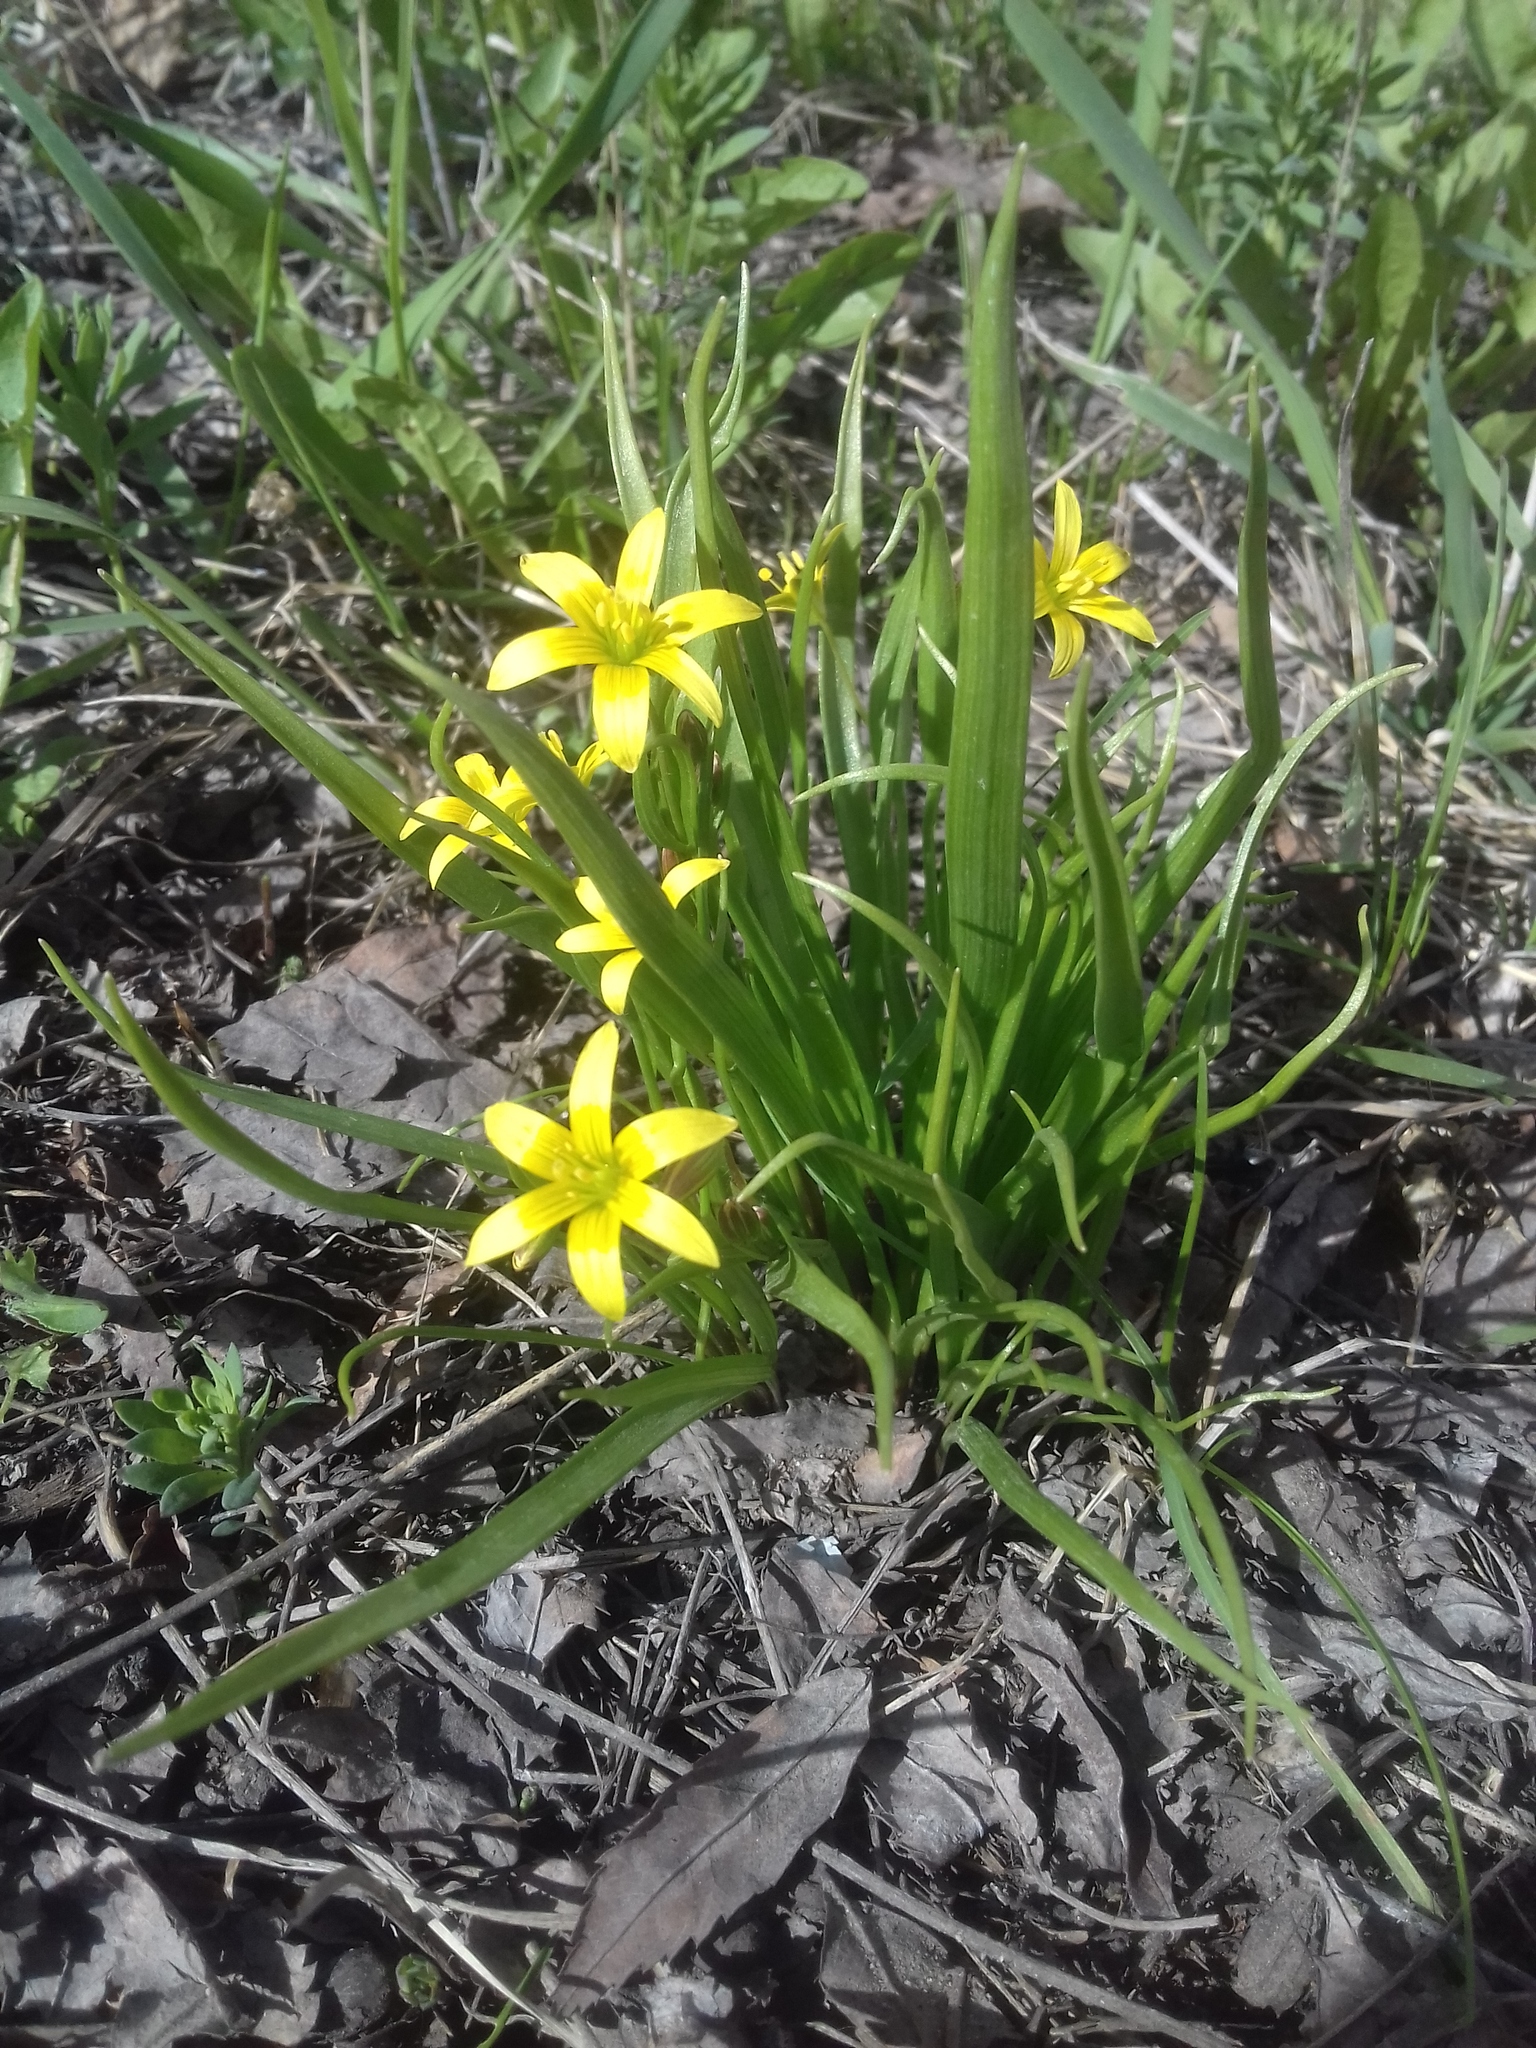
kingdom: Plantae
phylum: Tracheophyta
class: Liliopsida
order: Liliales
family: Liliaceae
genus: Gagea
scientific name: Gagea minima
